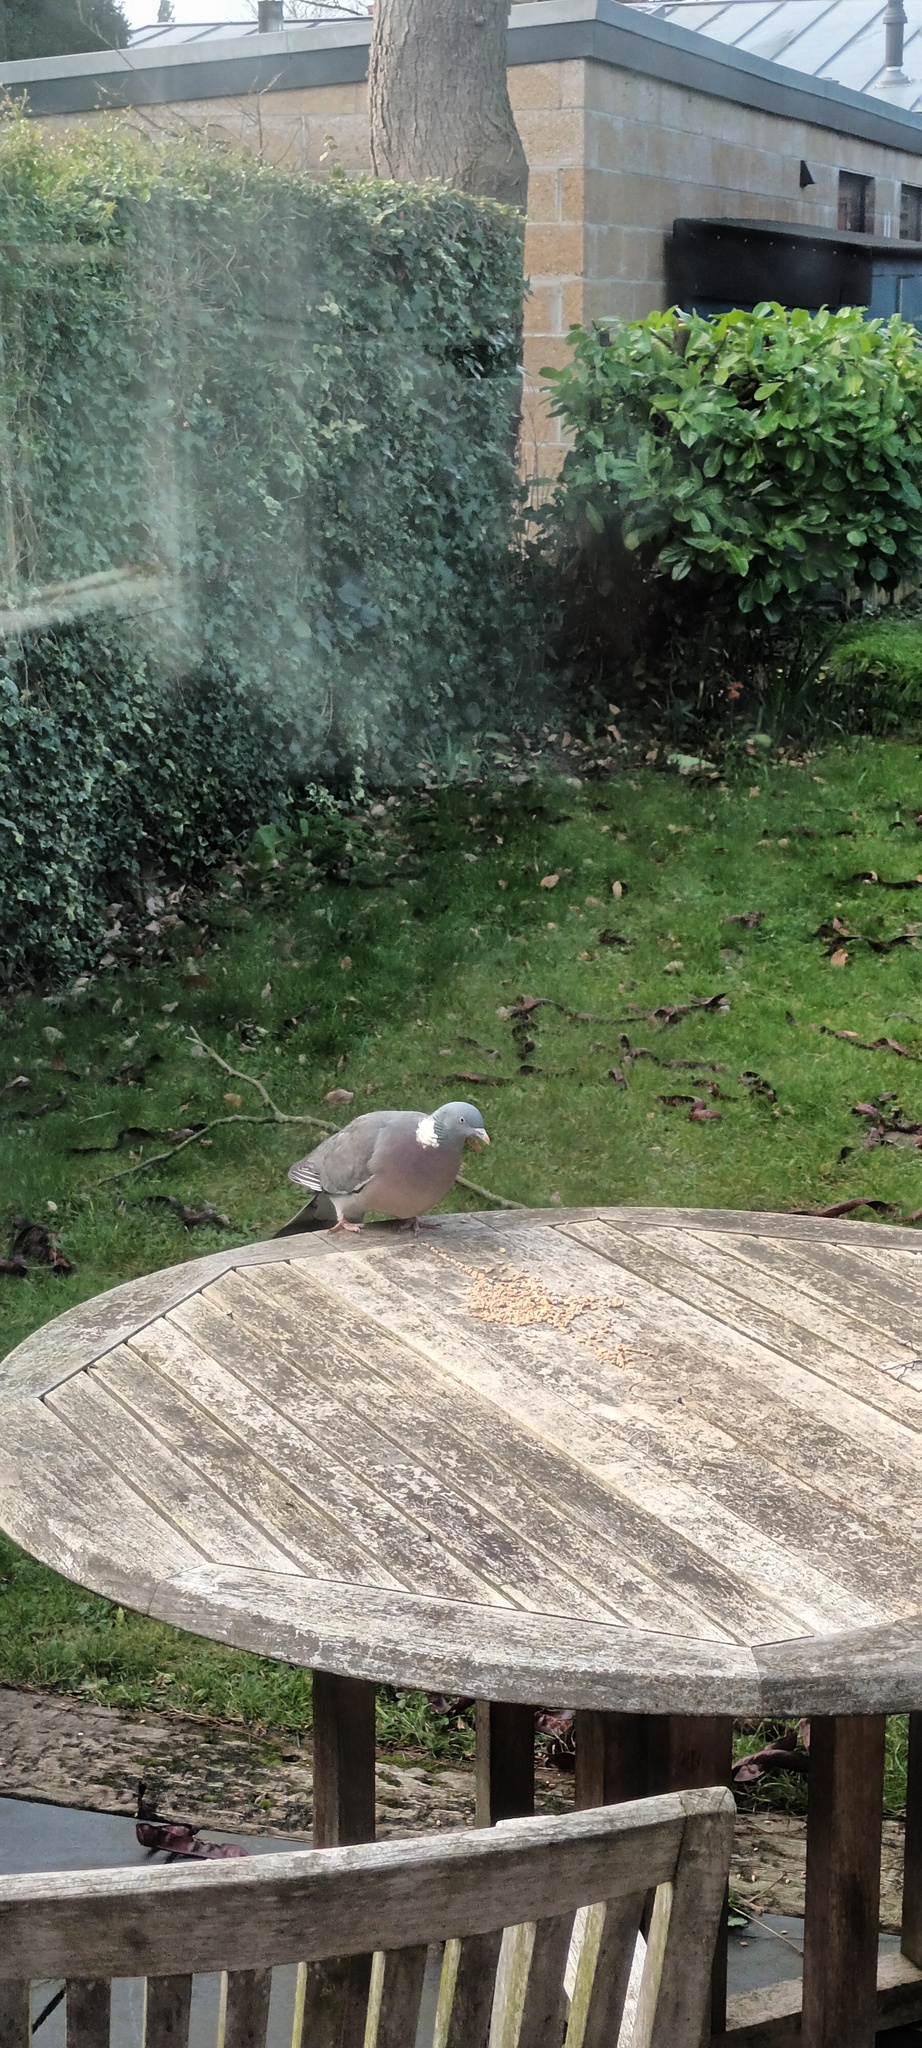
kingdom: Animalia
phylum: Chordata
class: Aves
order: Columbiformes
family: Columbidae
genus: Columba
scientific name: Columba palumbus
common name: Common wood pigeon
